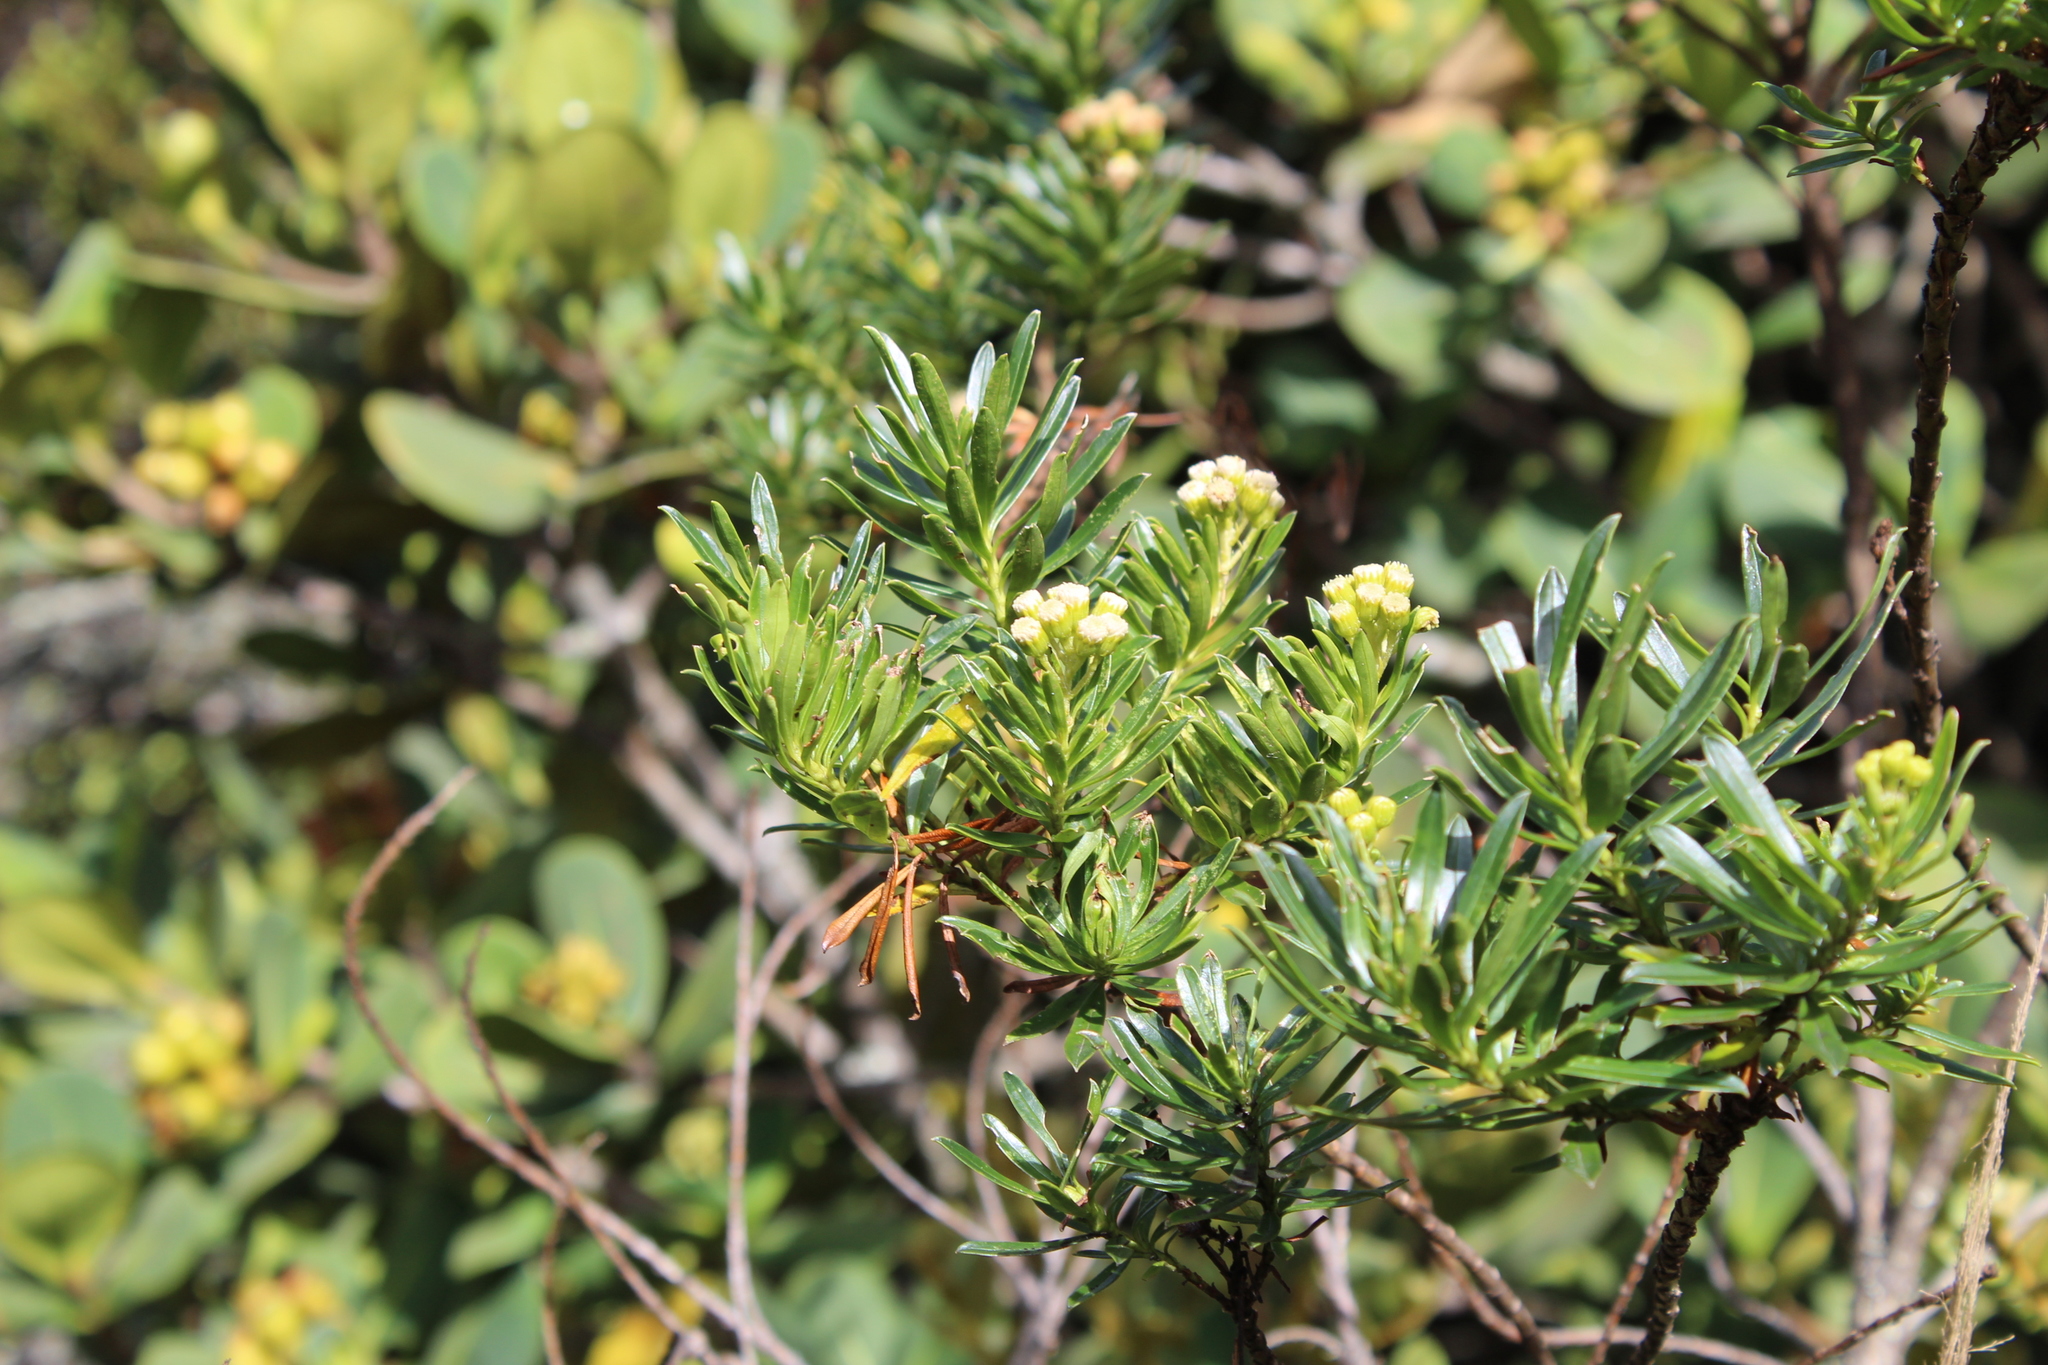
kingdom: Plantae
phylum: Tracheophyta
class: Magnoliopsida
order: Asterales
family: Asteraceae
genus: Monticalia
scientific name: Monticalia pulchella
